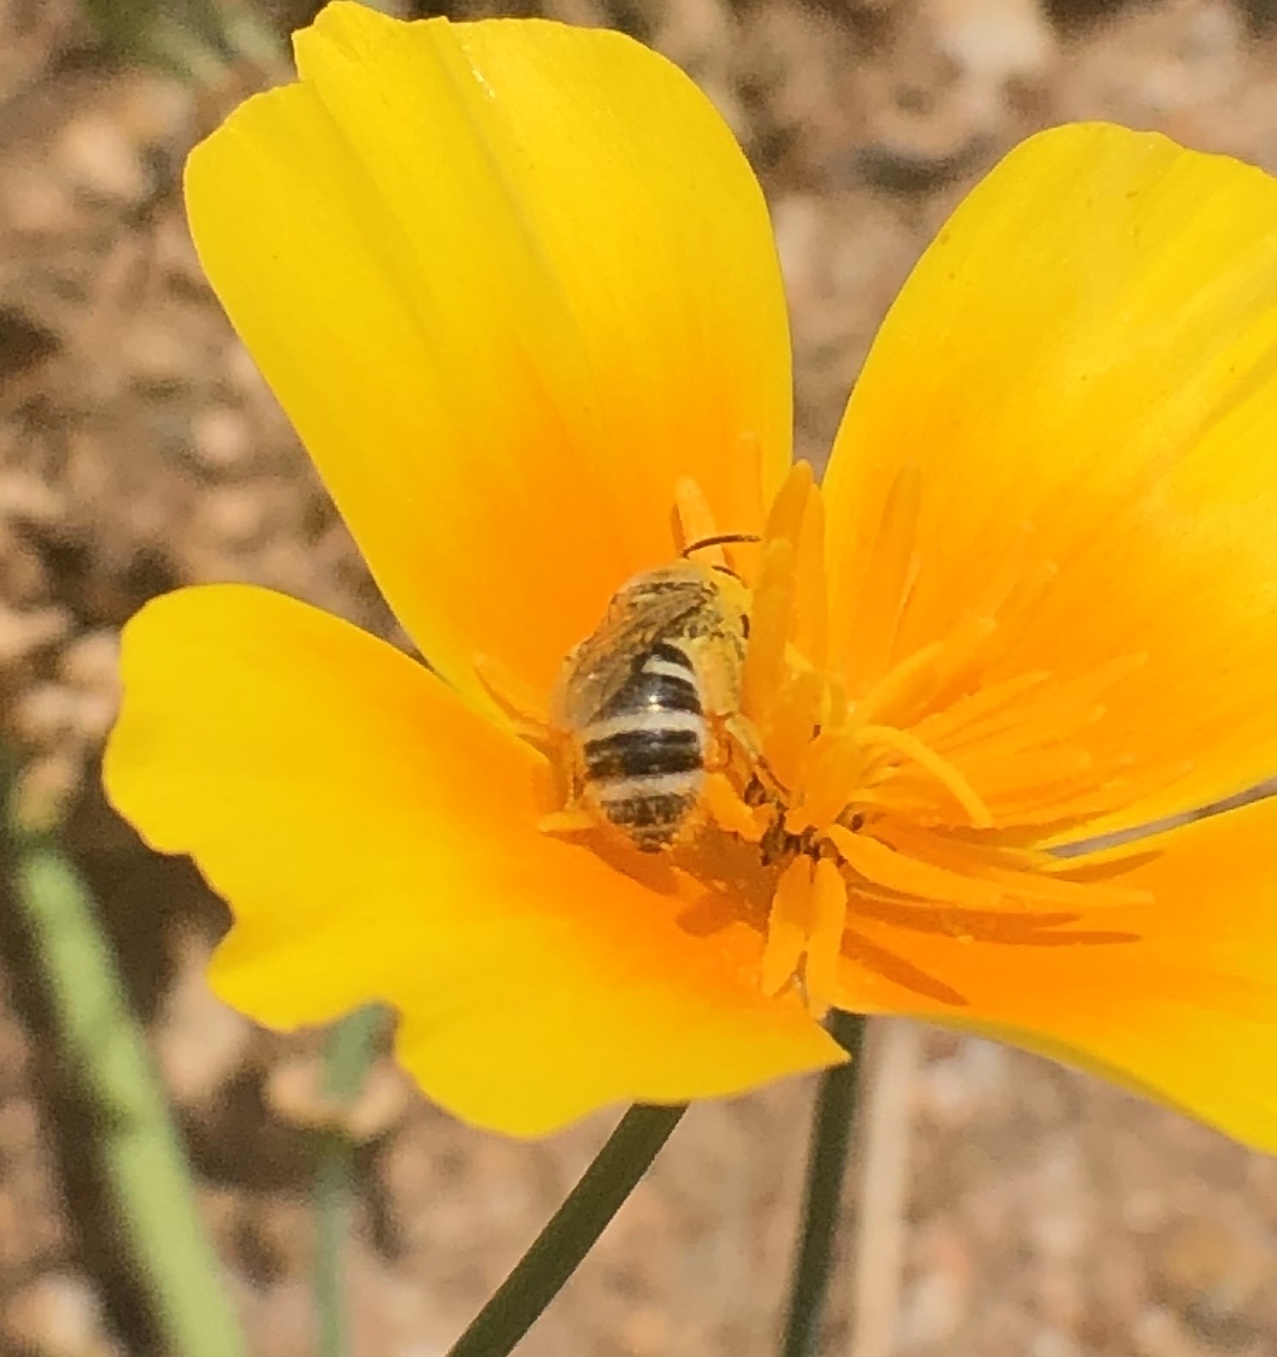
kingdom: Animalia
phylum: Arthropoda
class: Insecta
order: Hymenoptera
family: Halictidae
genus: Lasioglossum
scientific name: Lasioglossum sisymbrii
